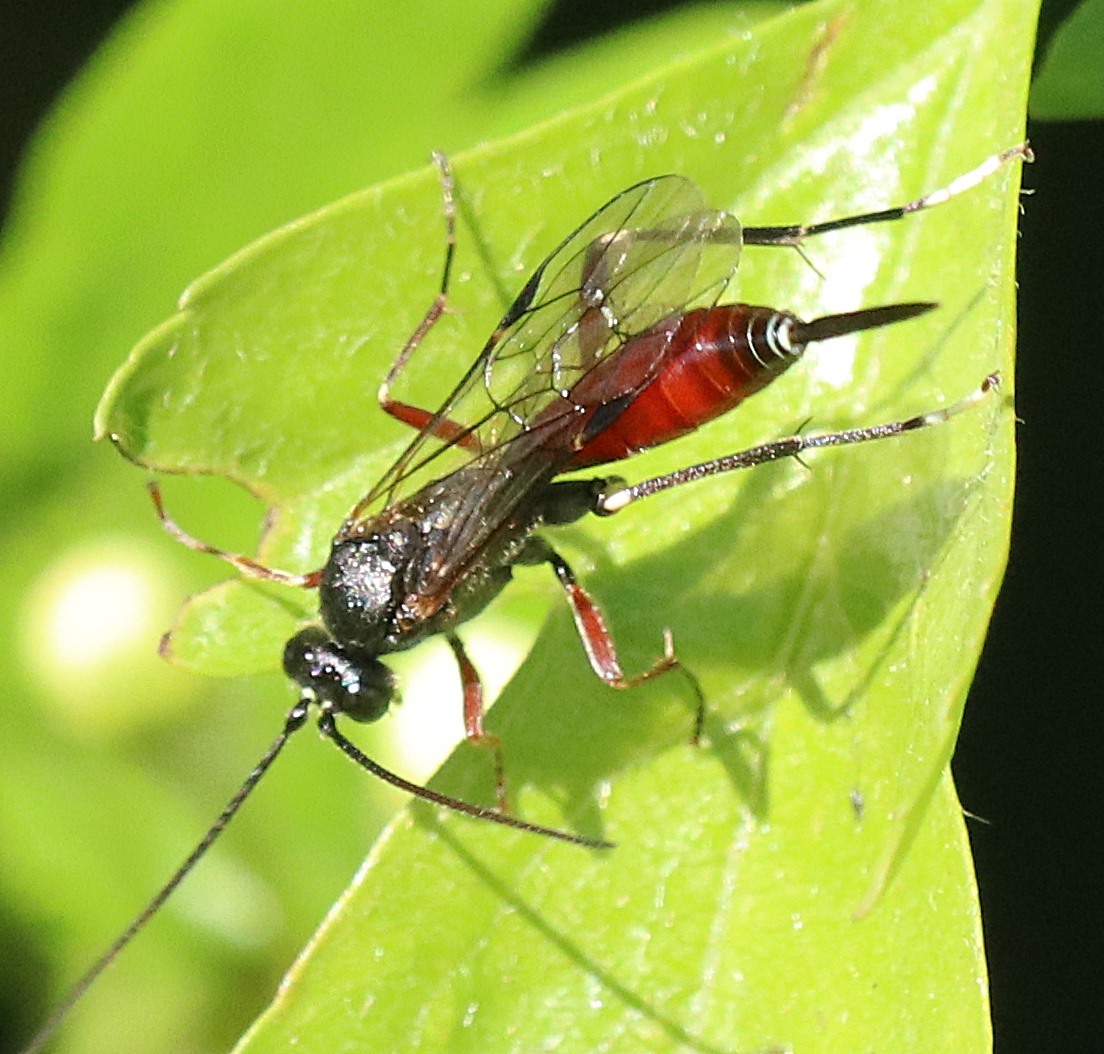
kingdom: Animalia
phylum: Arthropoda
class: Insecta
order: Hymenoptera
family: Ichneumonidae
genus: Alloplasta
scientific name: Alloplasta piceator
